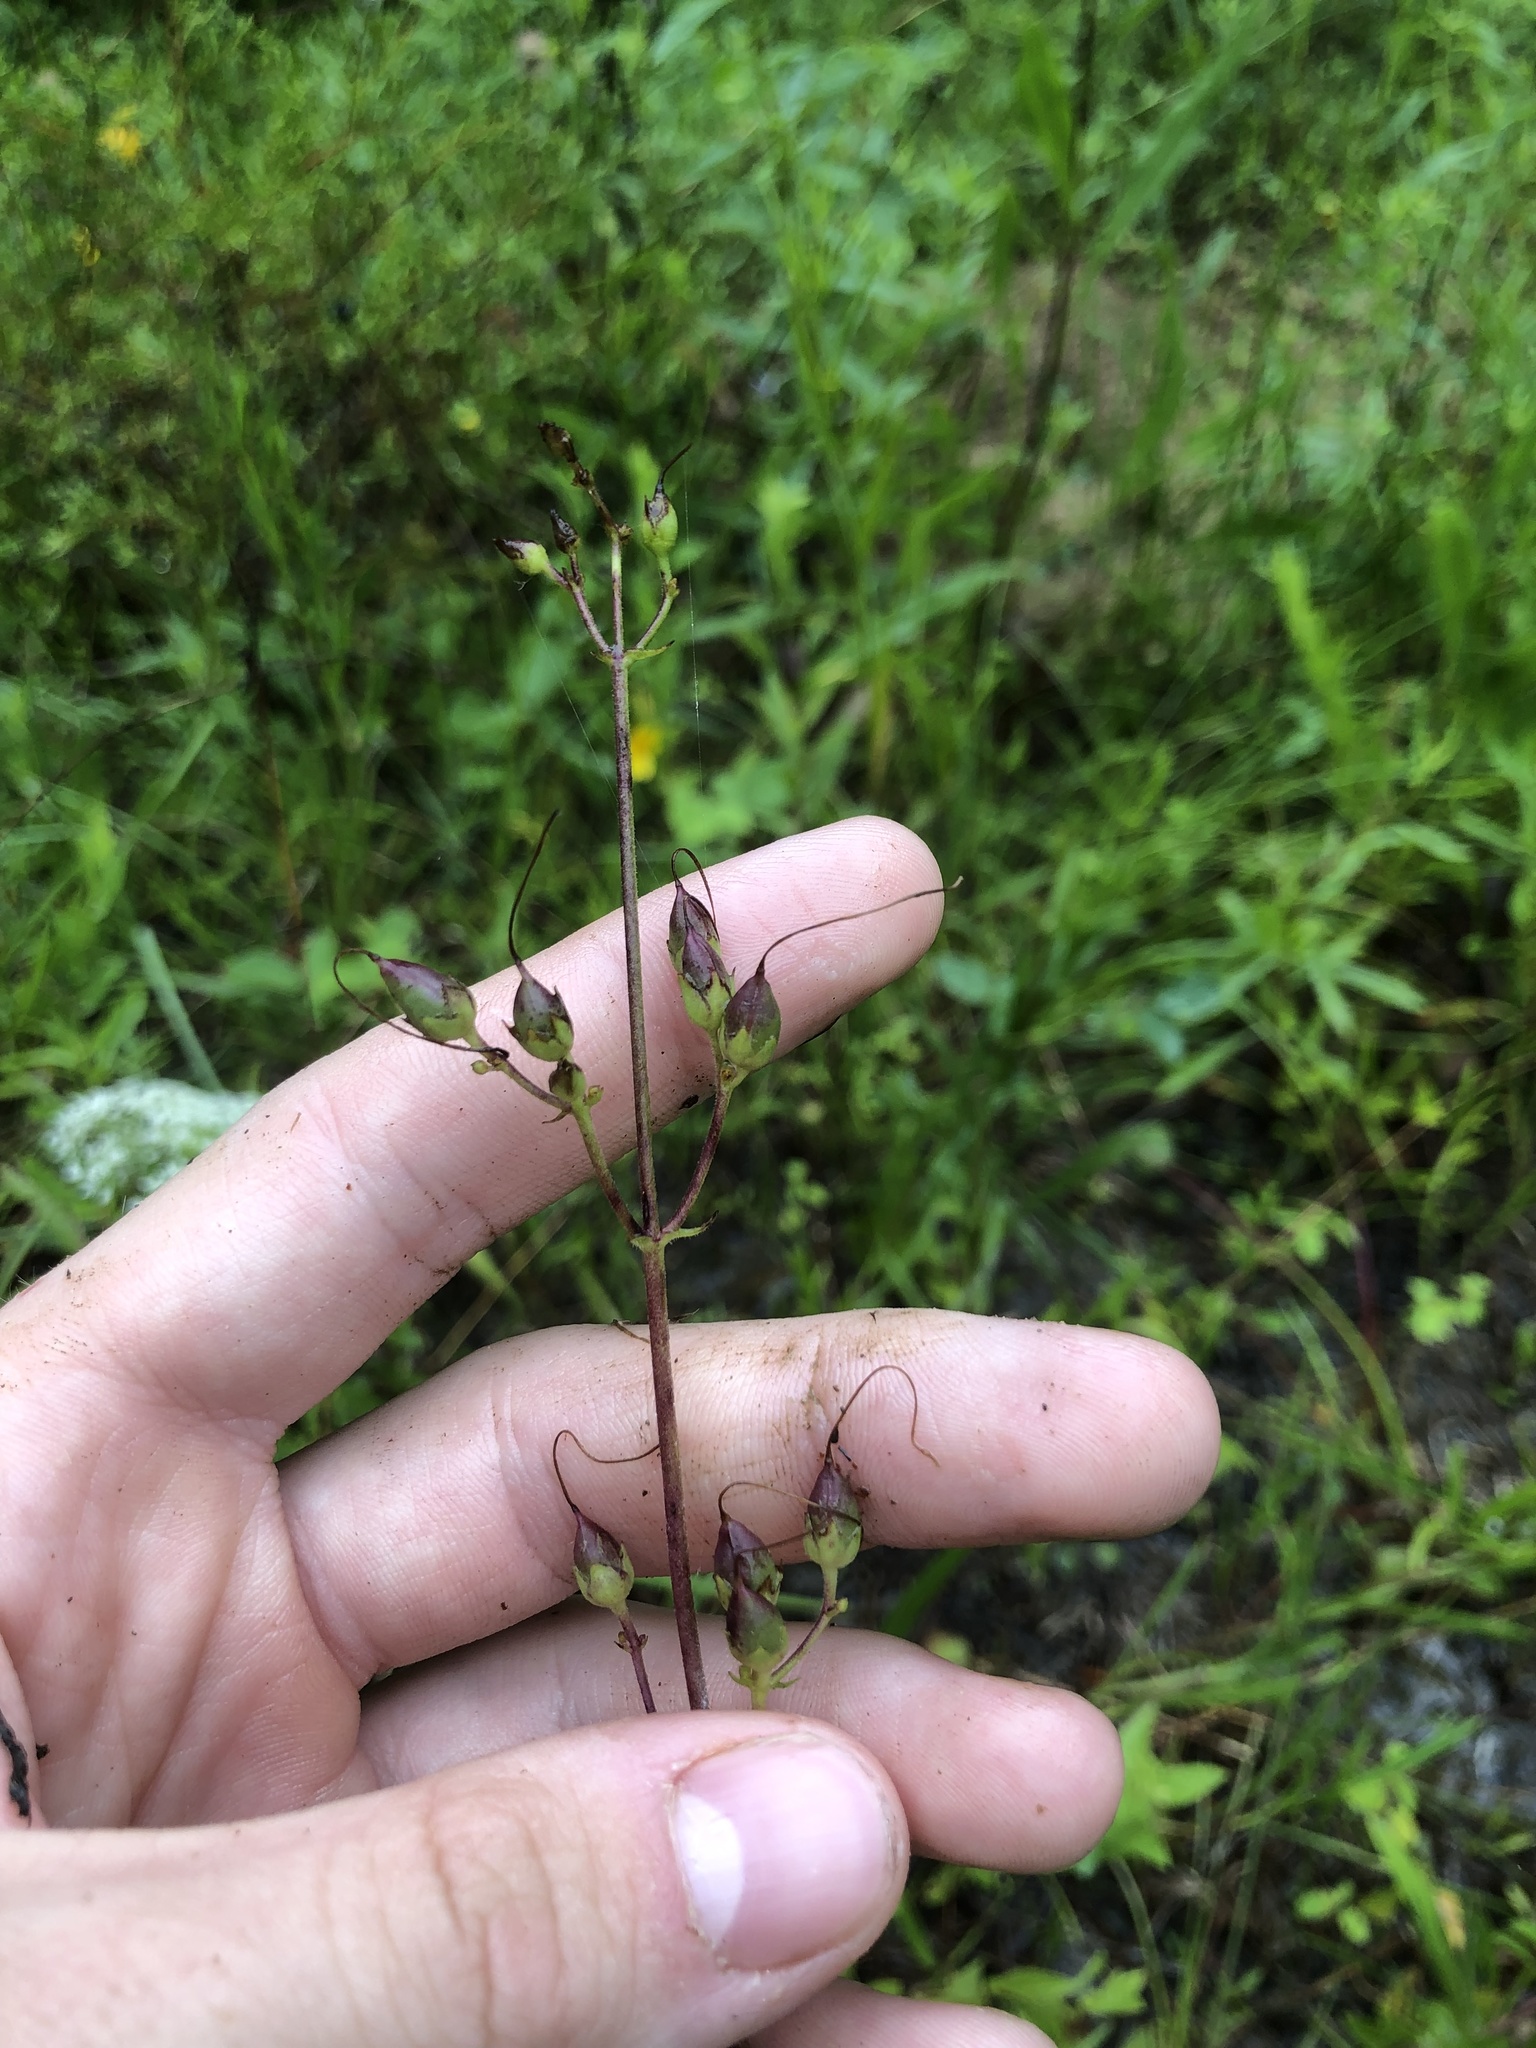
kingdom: Plantae
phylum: Tracheophyta
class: Magnoliopsida
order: Lamiales
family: Plantaginaceae
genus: Penstemon
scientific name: Penstemon tenuiflorus
